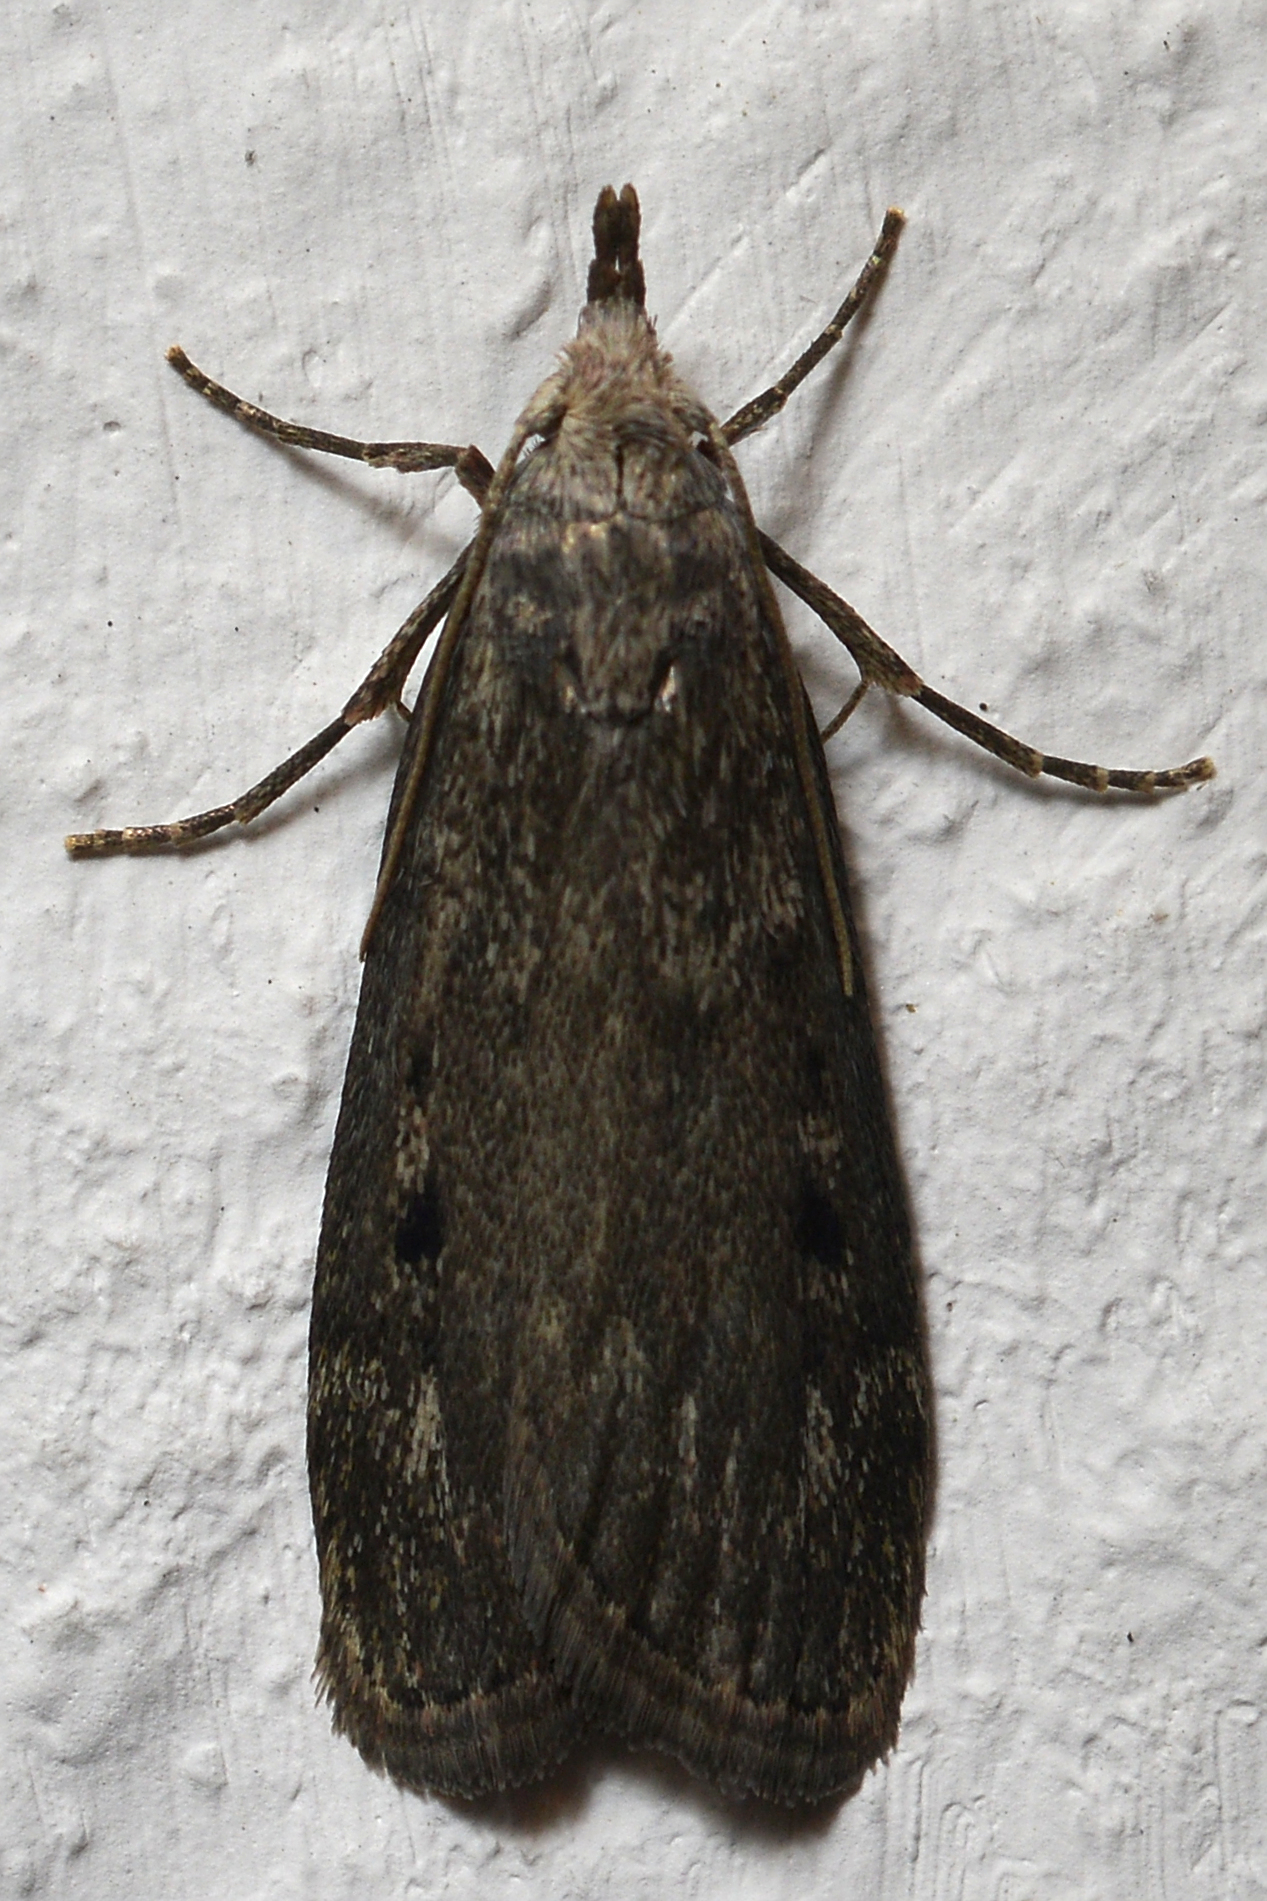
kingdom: Animalia
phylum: Arthropoda
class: Insecta
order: Lepidoptera
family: Pyralidae
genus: Aphomia
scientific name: Aphomia sociella
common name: Bee moth
